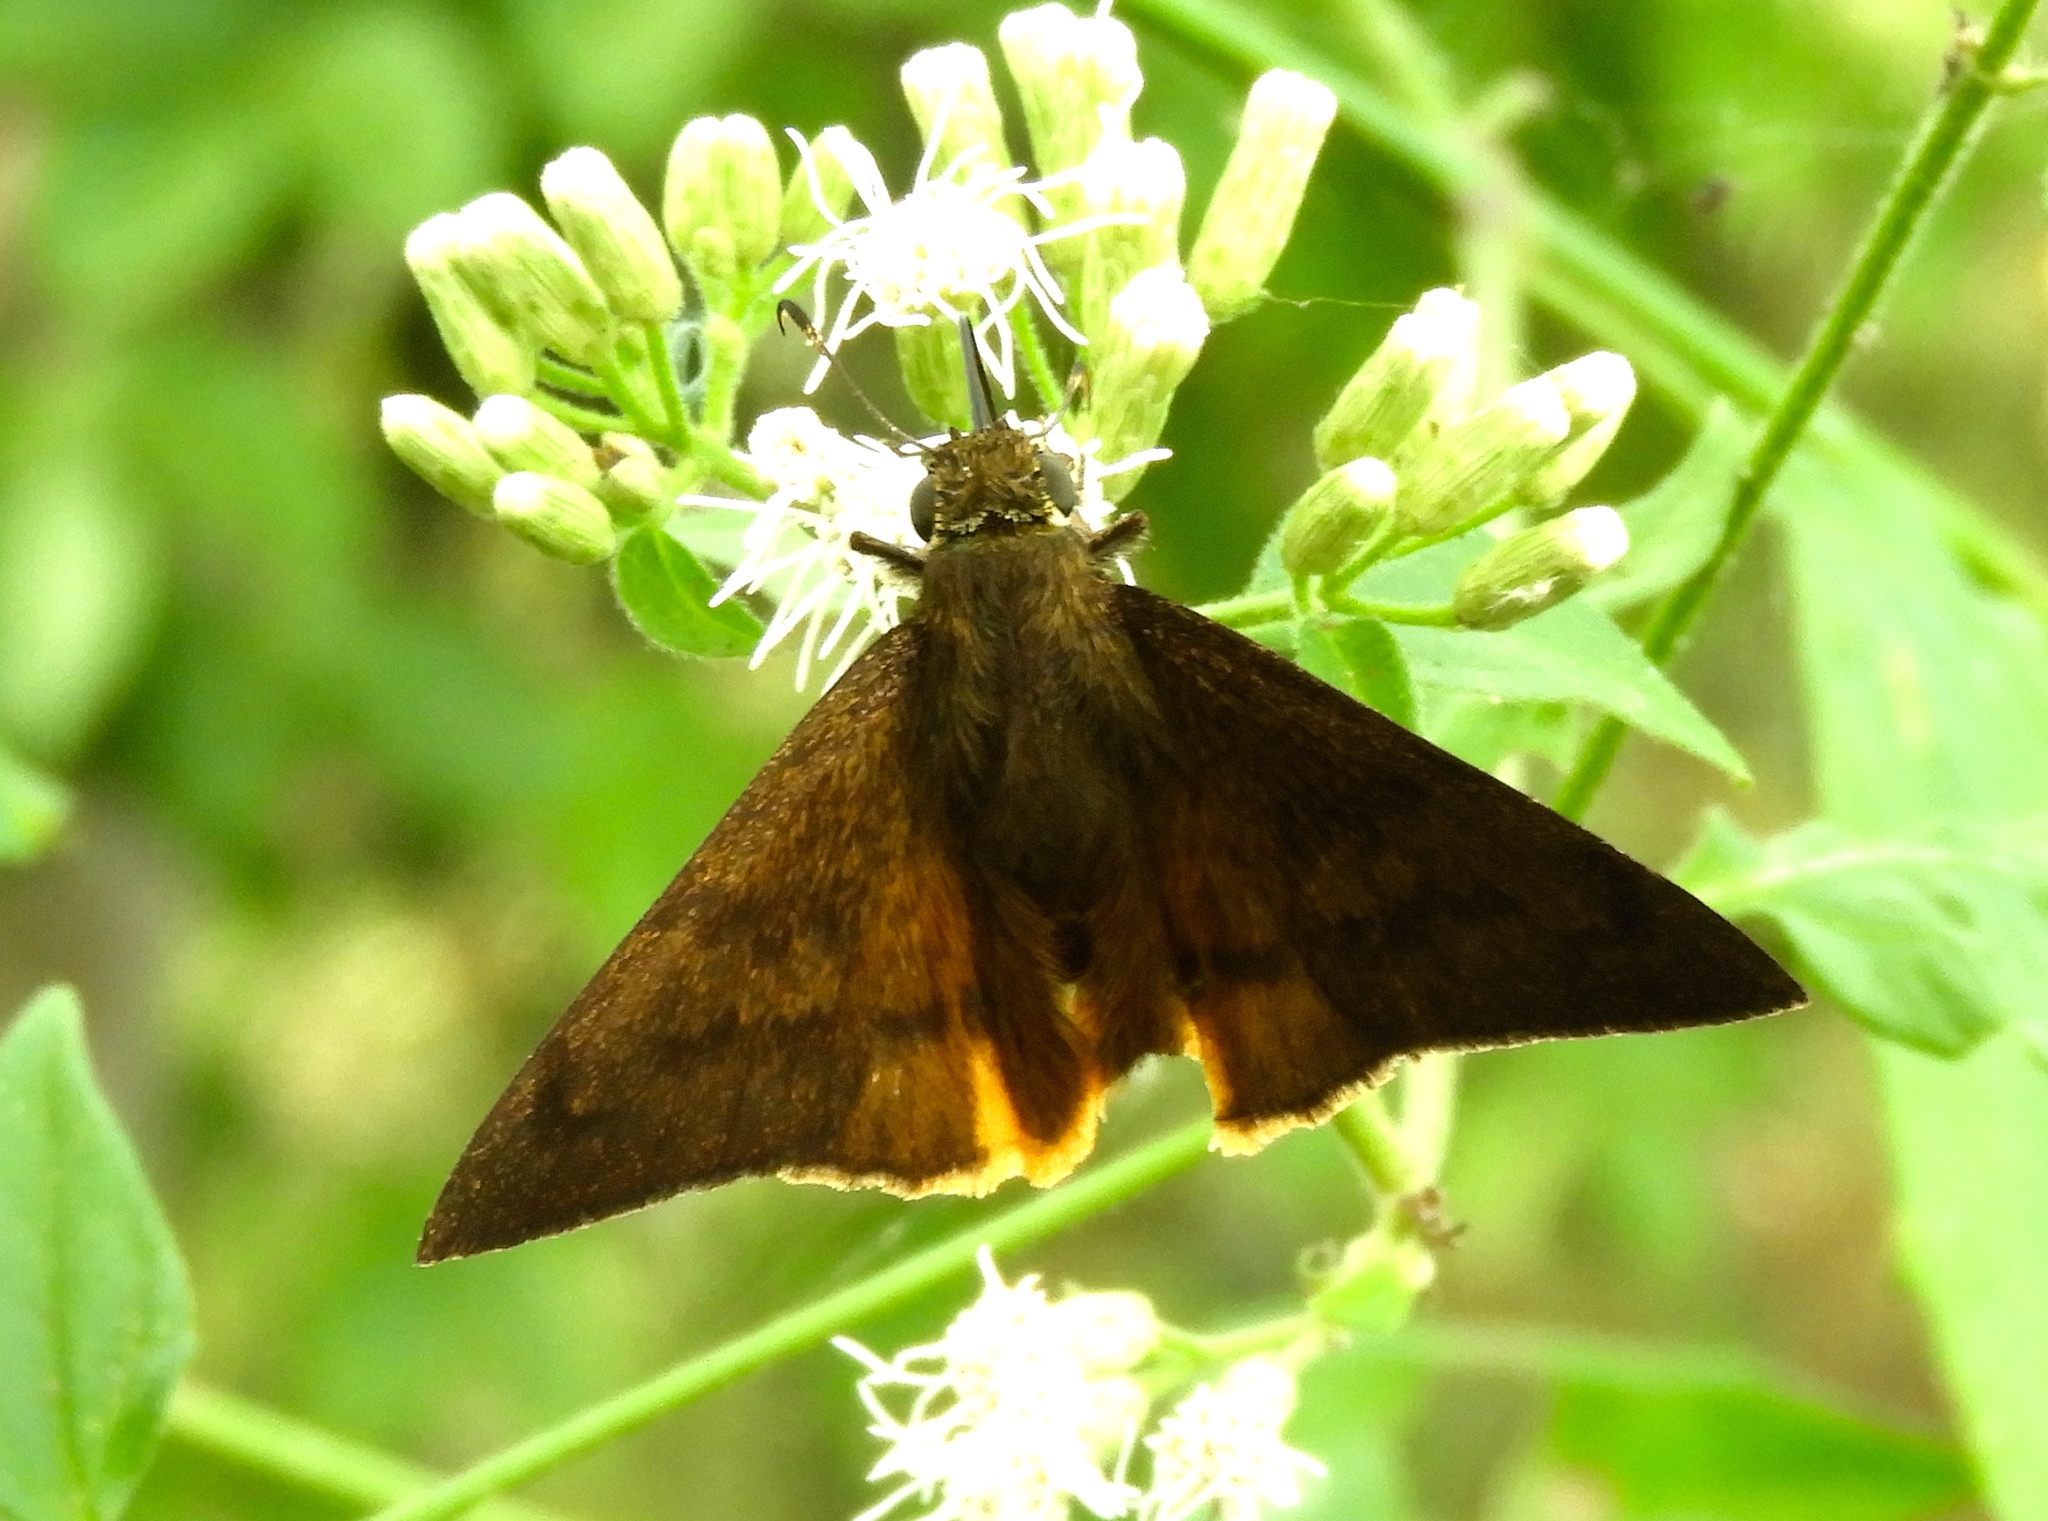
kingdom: Animalia
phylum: Arthropoda
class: Insecta
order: Lepidoptera
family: Hesperiidae
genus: Astraptes
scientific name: Astraptes anaphus
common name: Yellow-tipped flasher
